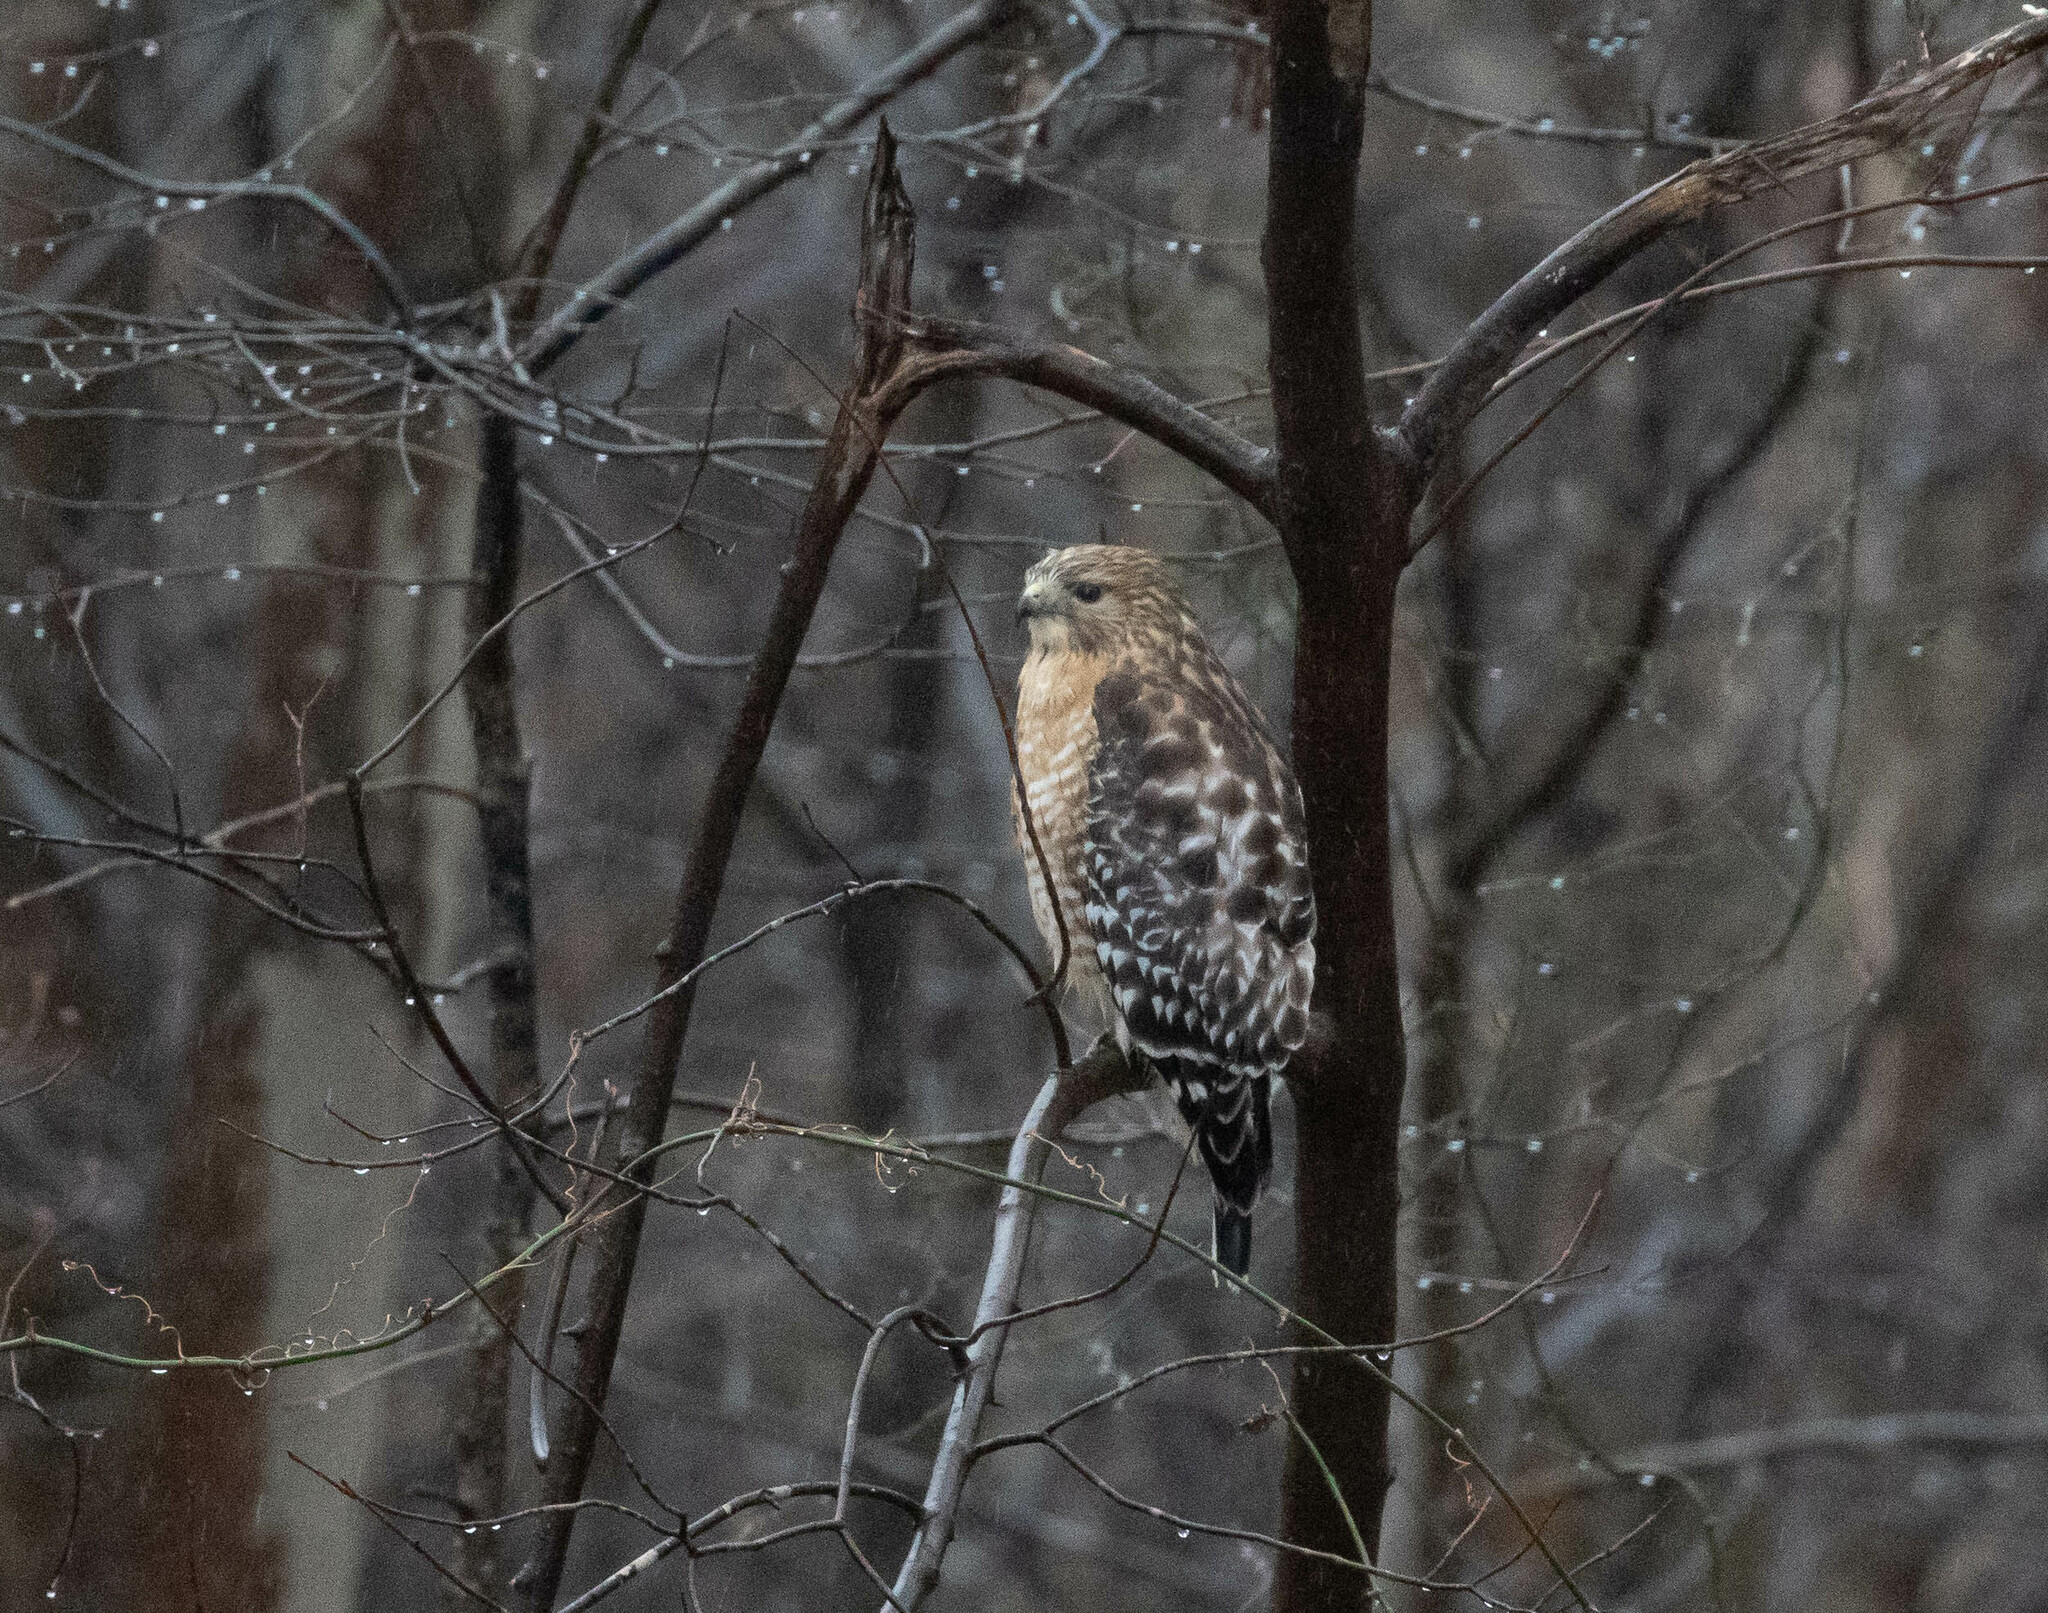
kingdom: Animalia
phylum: Chordata
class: Aves
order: Accipitriformes
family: Accipitridae
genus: Buteo
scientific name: Buteo lineatus
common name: Red-shouldered hawk
